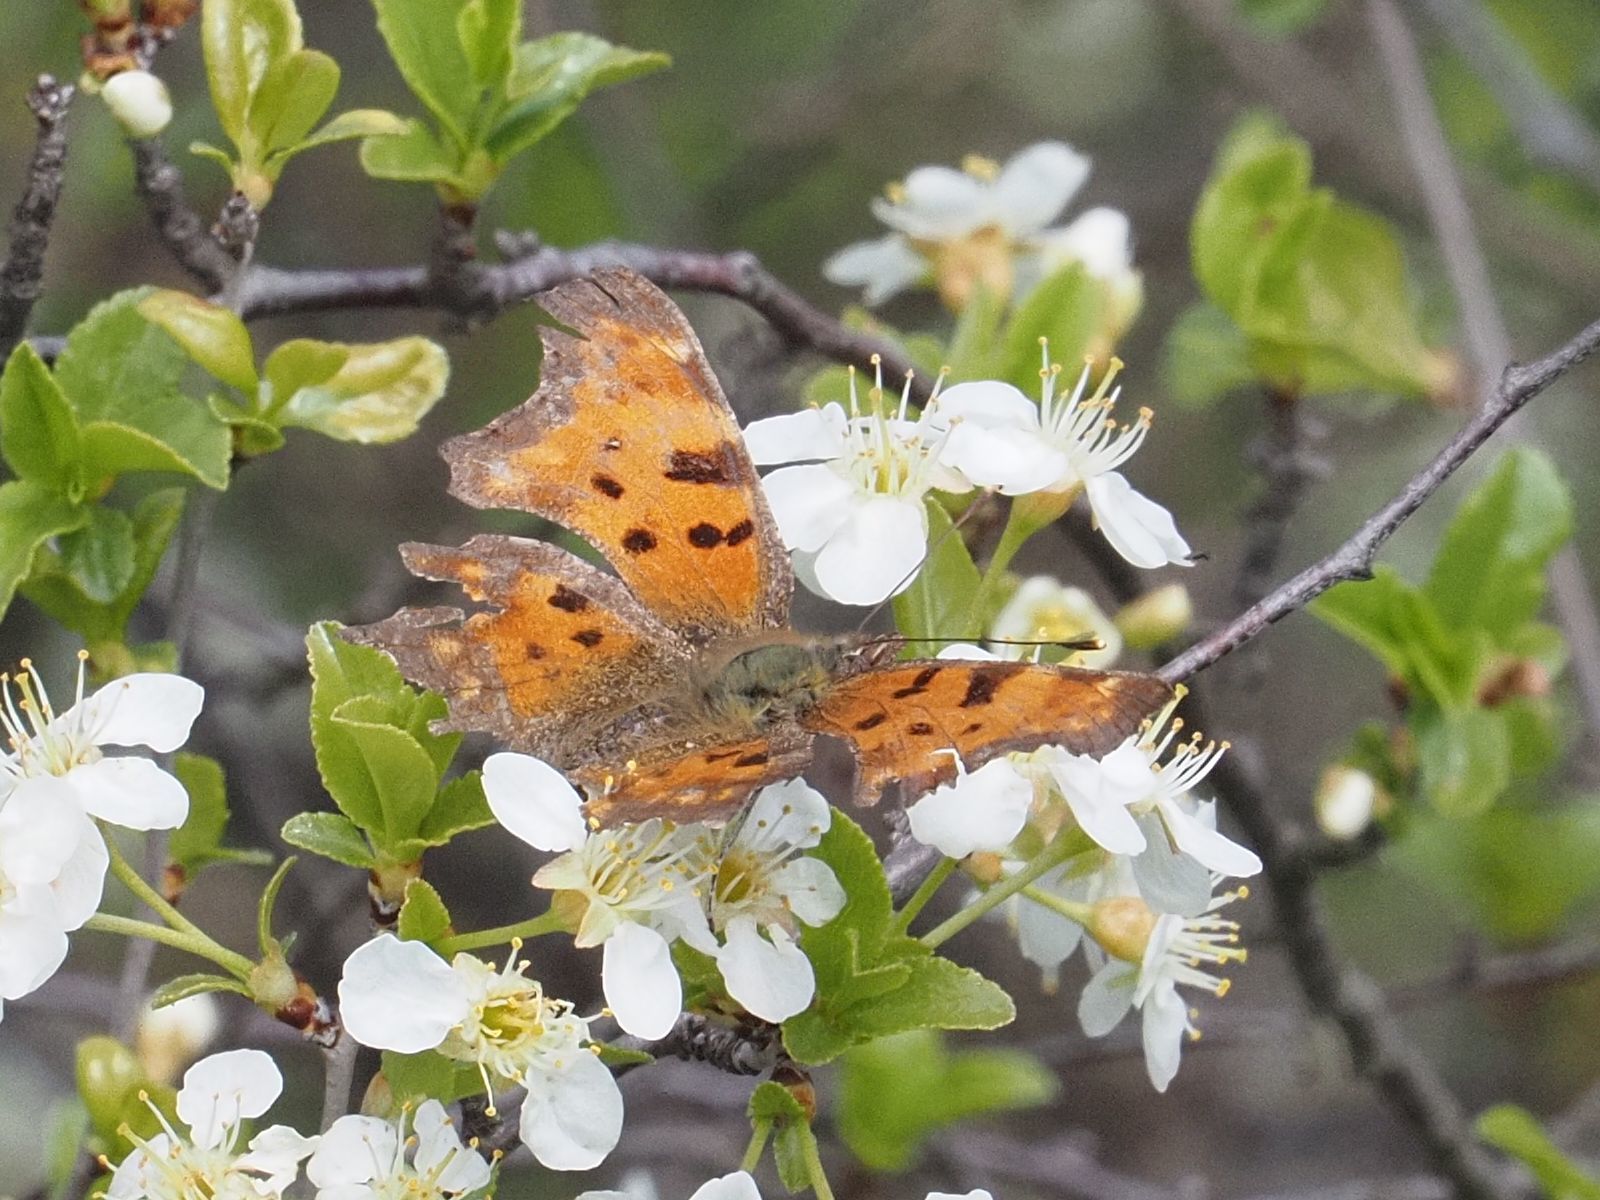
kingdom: Animalia
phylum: Arthropoda
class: Insecta
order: Lepidoptera
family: Nymphalidae
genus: Polygonia
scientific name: Polygonia c-album
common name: Comma
